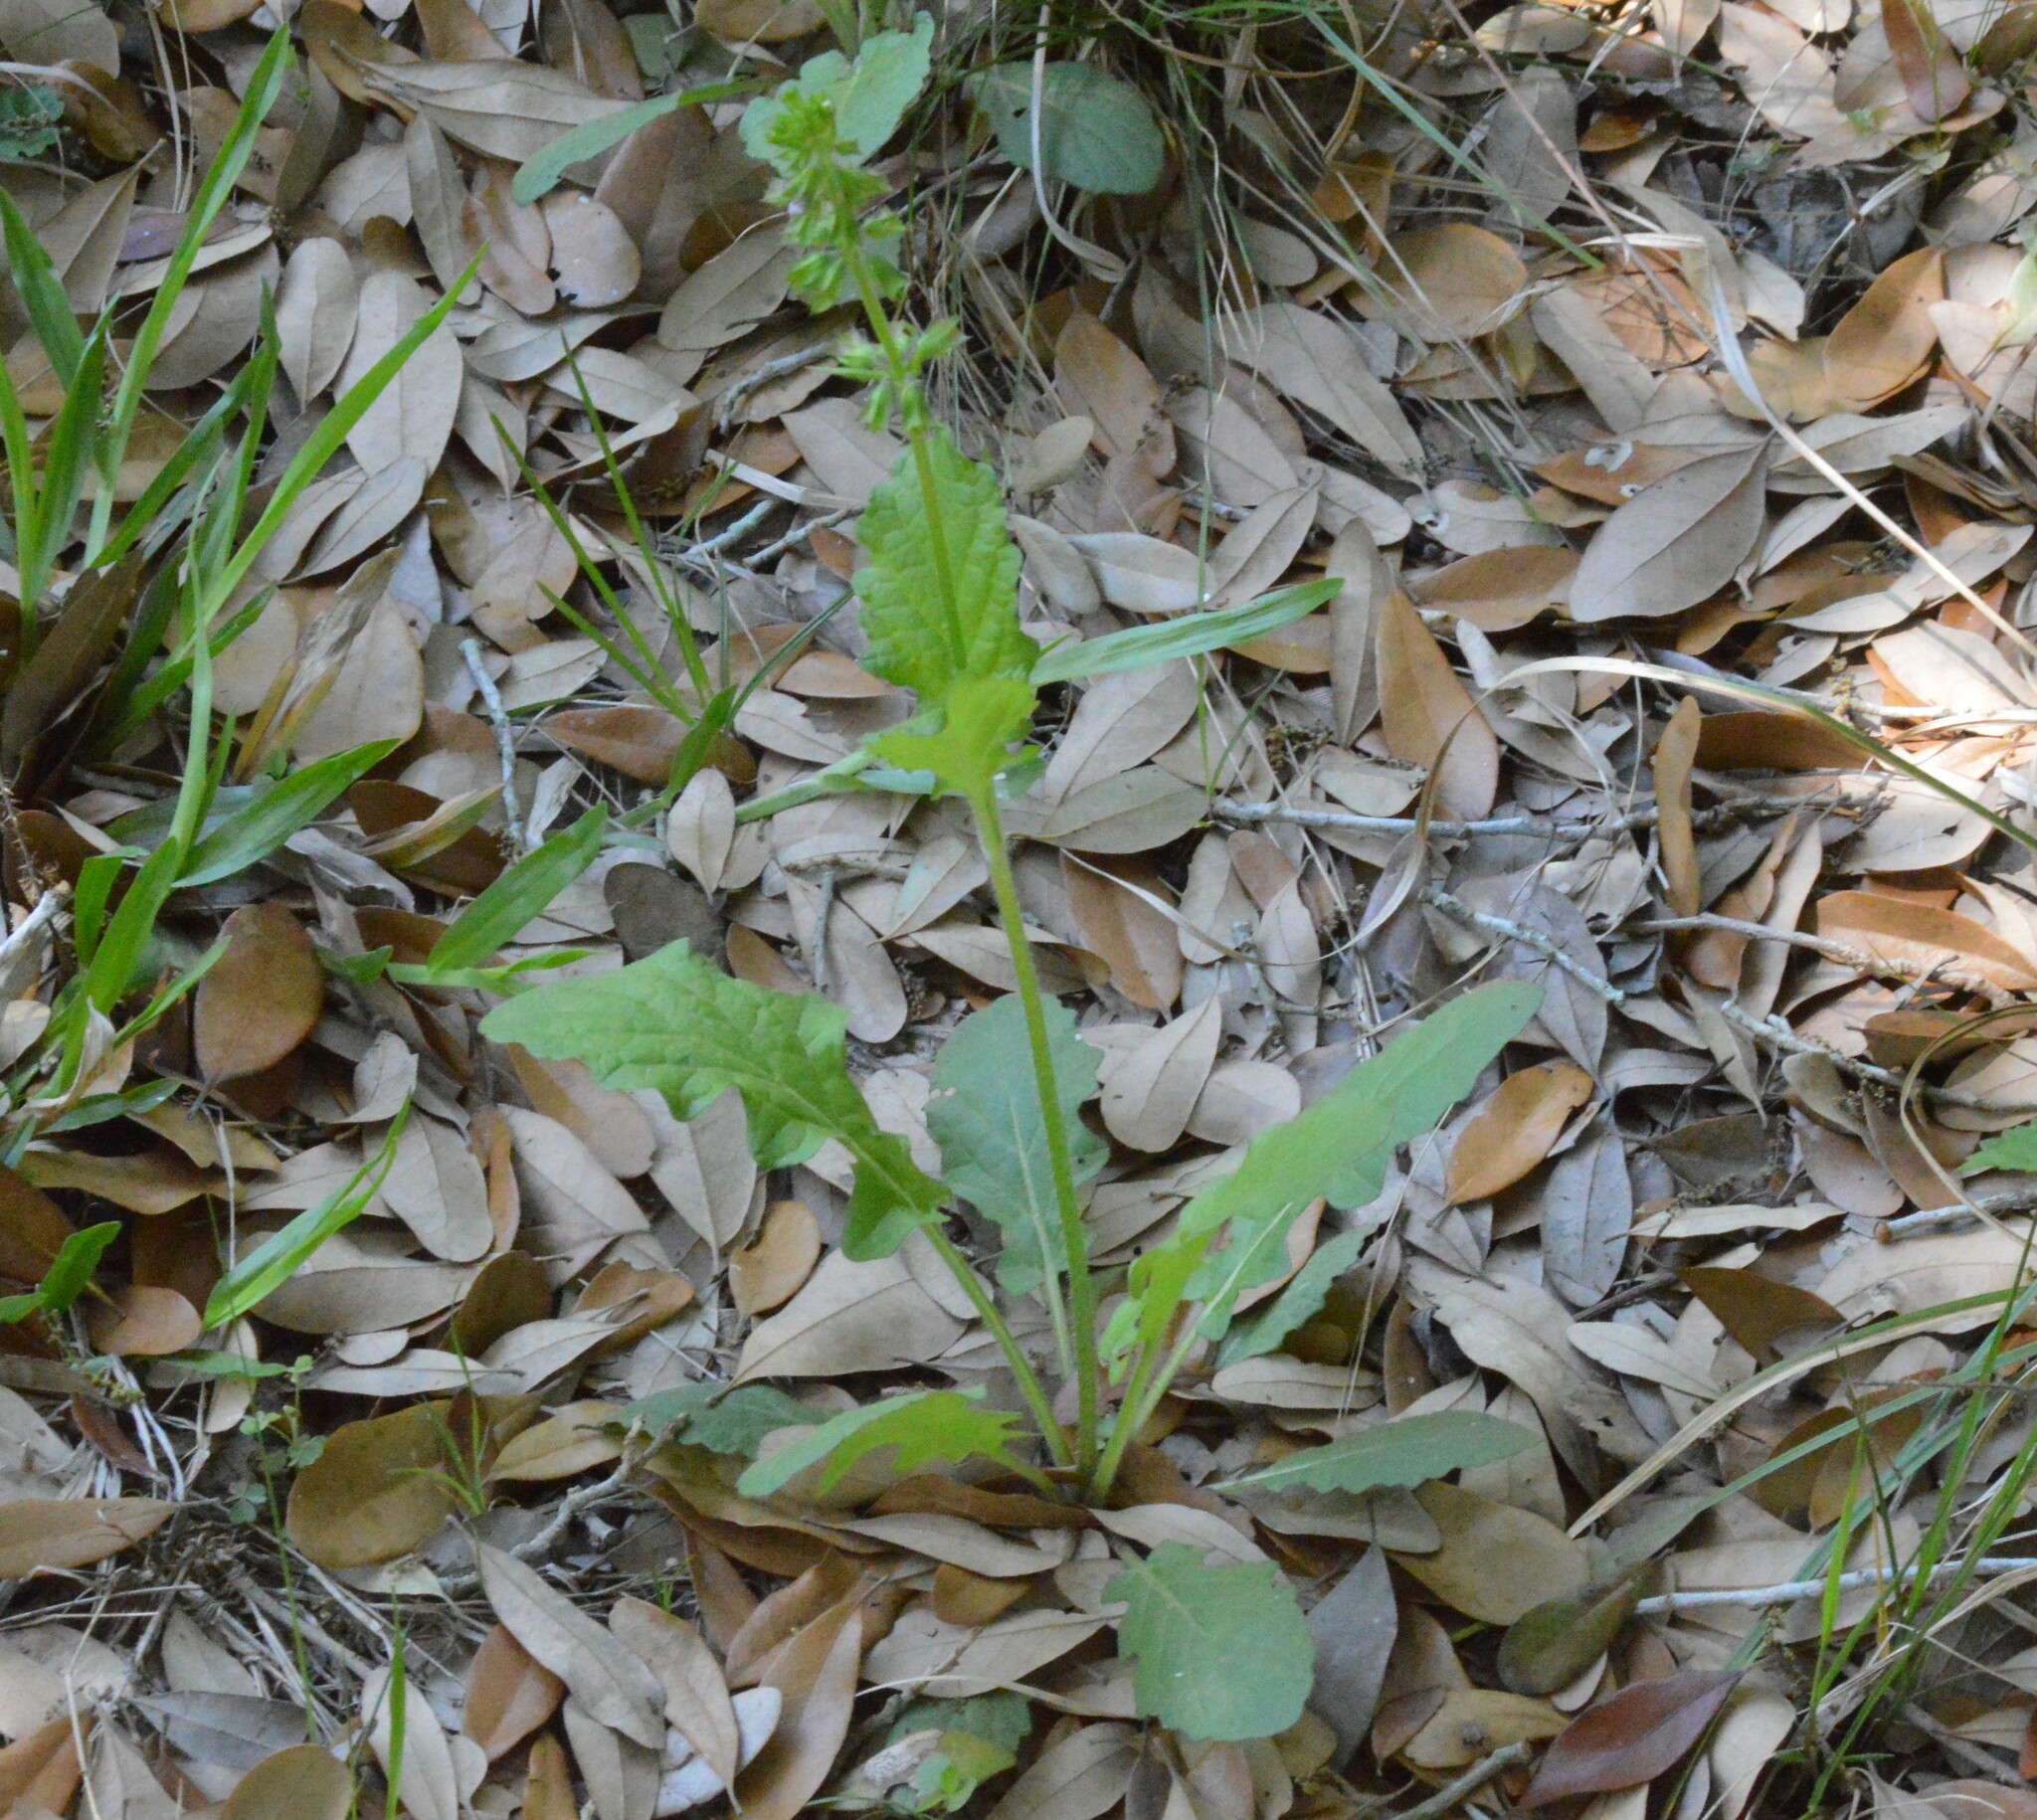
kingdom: Plantae
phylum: Tracheophyta
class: Magnoliopsida
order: Lamiales
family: Lamiaceae
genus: Salvia
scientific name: Salvia lyrata
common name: Cancerweed
